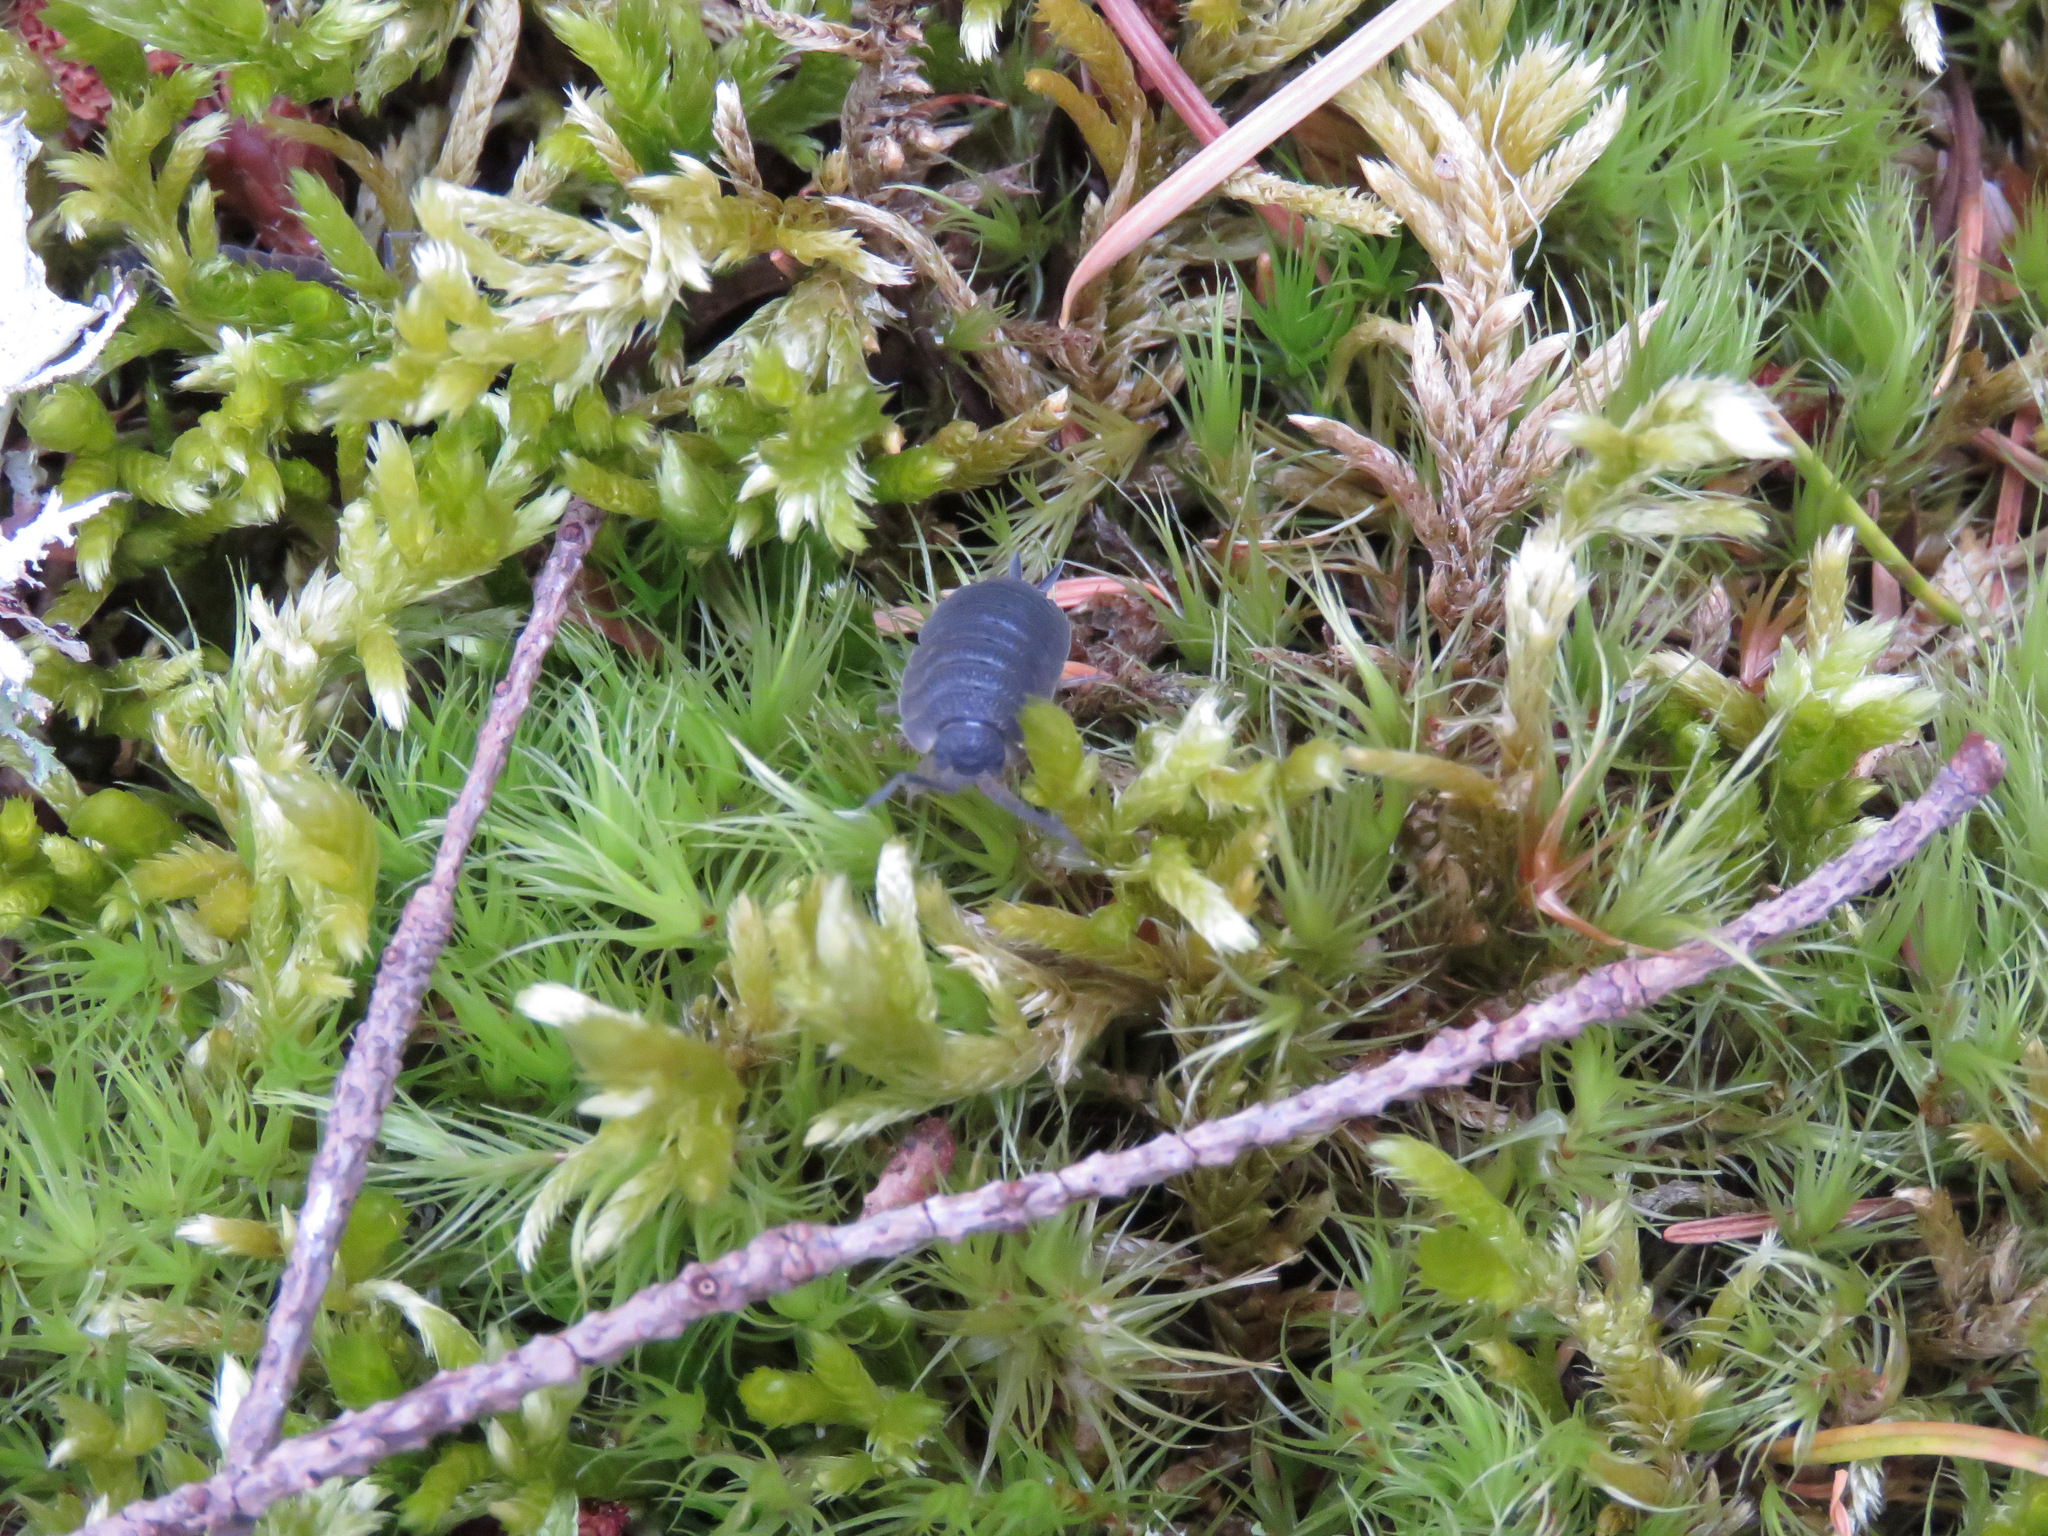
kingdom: Animalia
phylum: Arthropoda
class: Malacostraca
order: Isopoda
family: Porcellionidae
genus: Porcellio
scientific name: Porcellio scaber
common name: Common rough woodlouse
